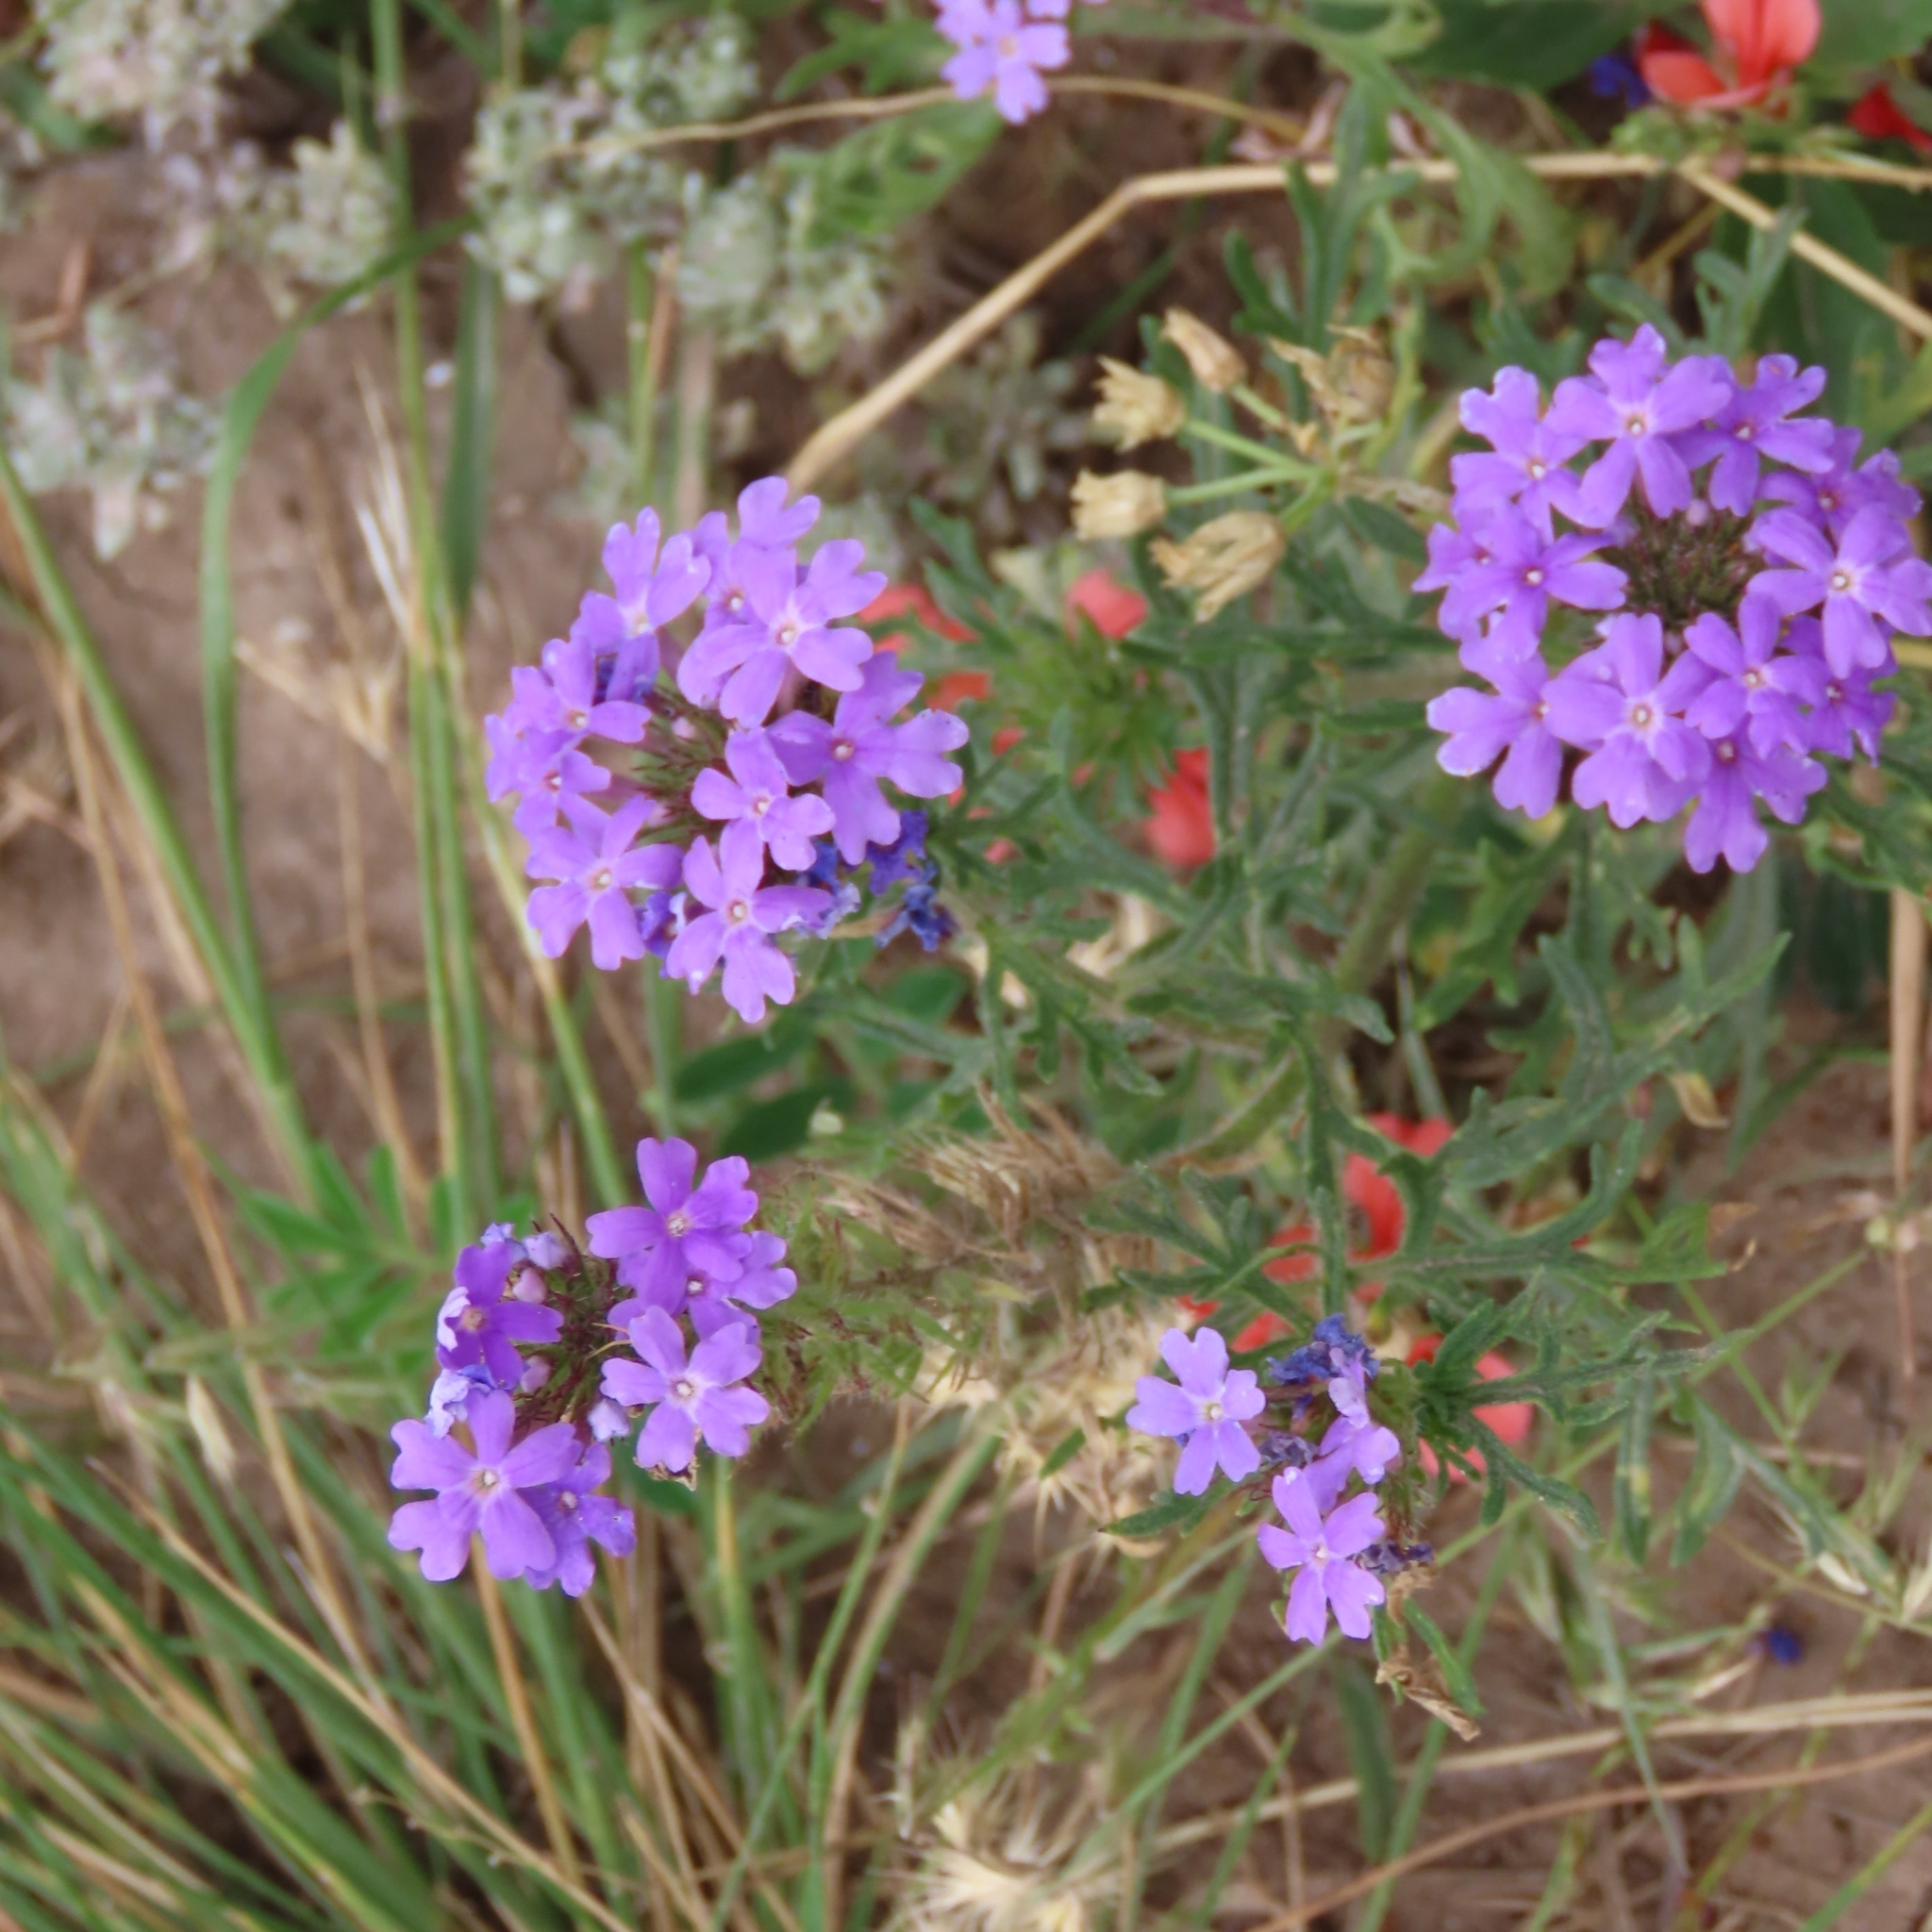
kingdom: Plantae
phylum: Tracheophyta
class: Magnoliopsida
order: Lamiales
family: Verbenaceae
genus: Verbena
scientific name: Verbena bipinnatifida
